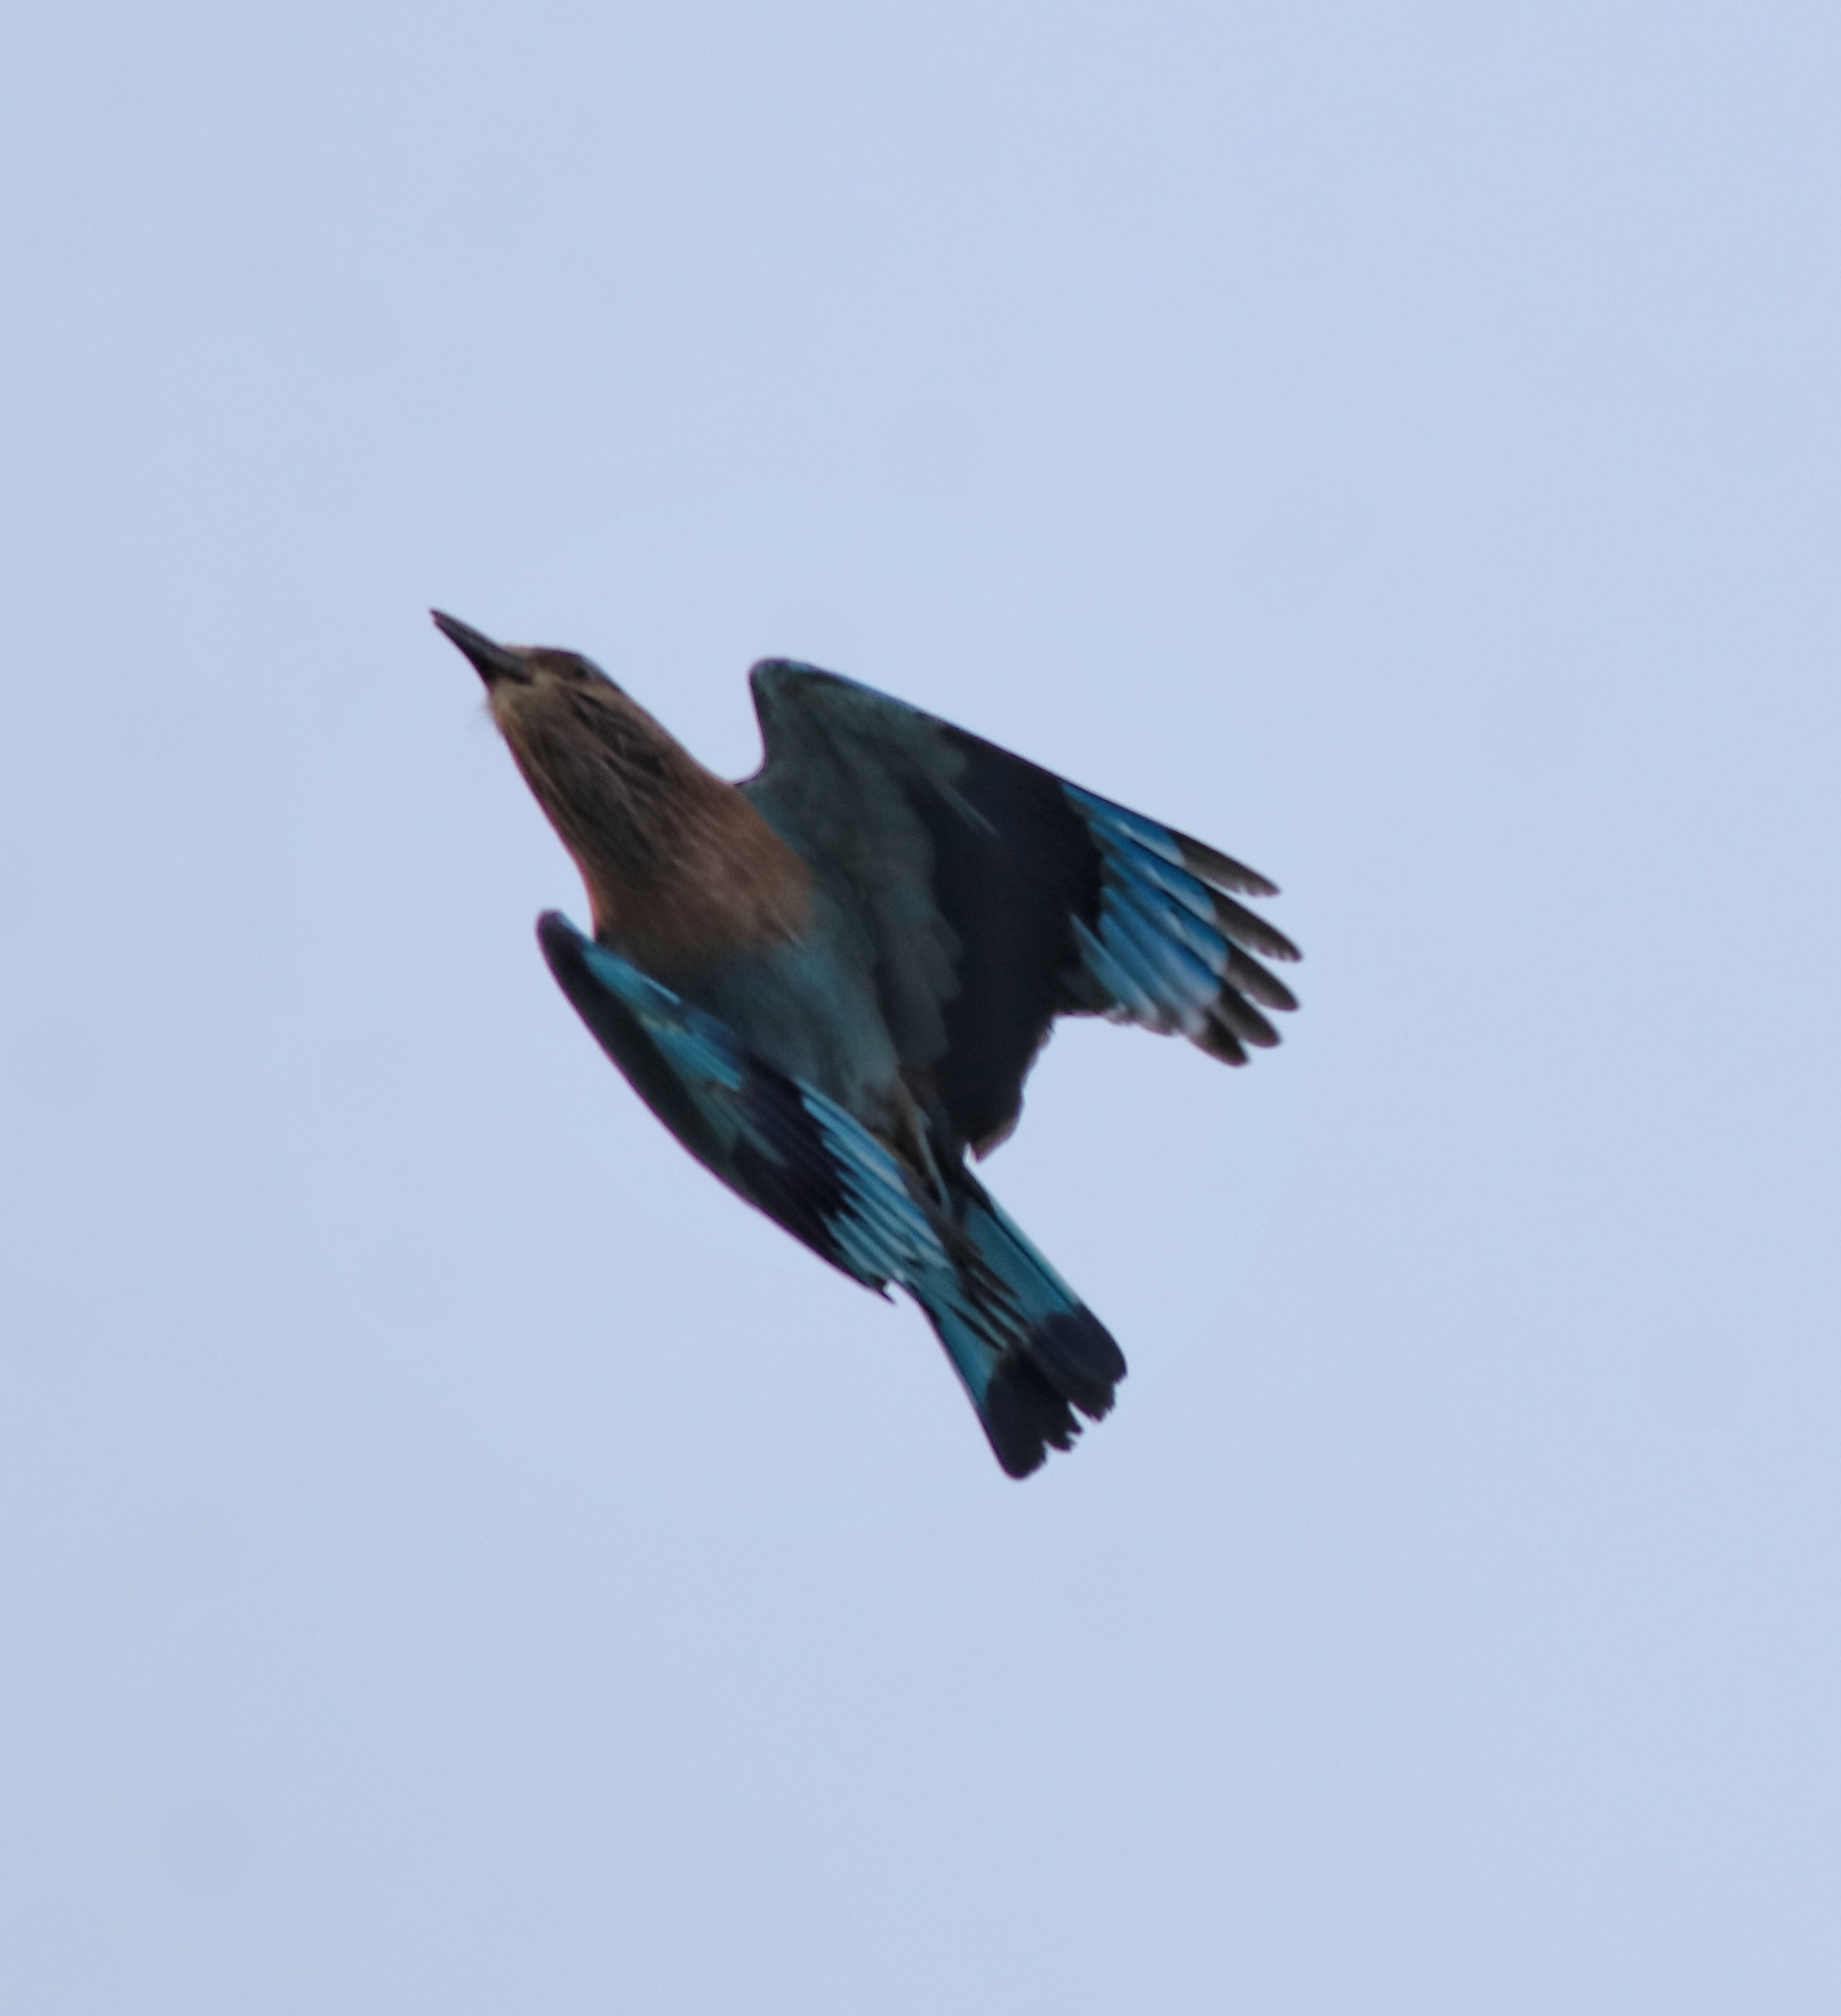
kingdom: Animalia
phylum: Chordata
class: Aves
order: Coraciiformes
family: Coraciidae
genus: Coracias
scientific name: Coracias benghalensis
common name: Indian roller
